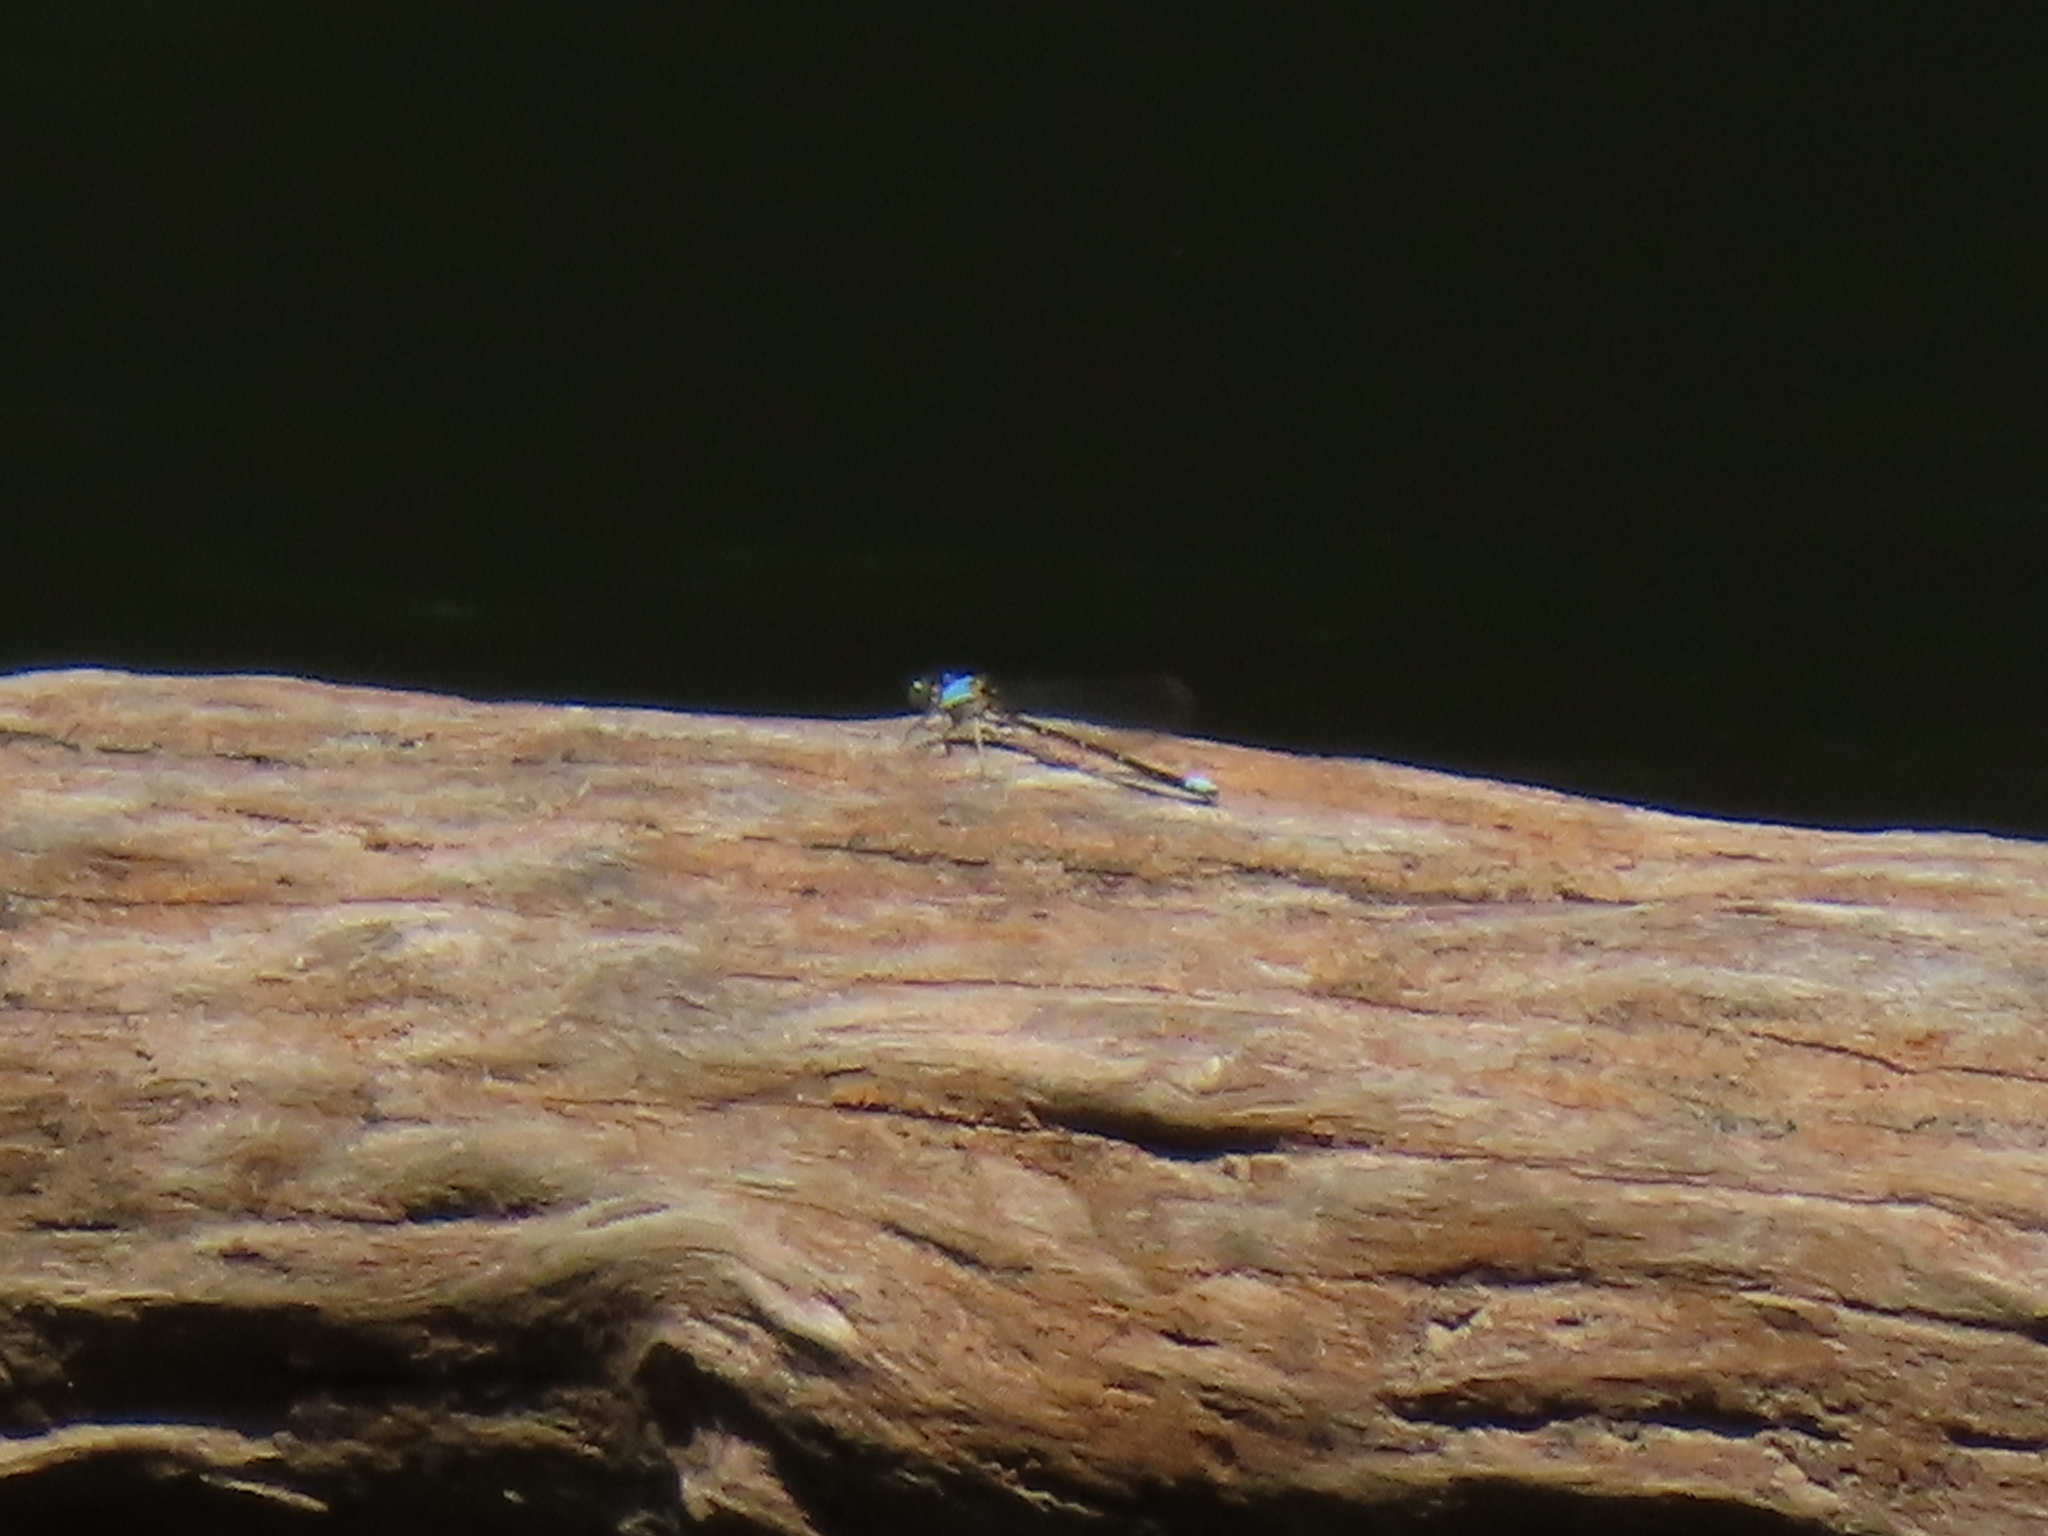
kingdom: Animalia
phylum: Arthropoda
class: Insecta
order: Odonata
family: Coenagrionidae
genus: Argia
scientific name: Argia apicalis
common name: Blue-fronted dancer
